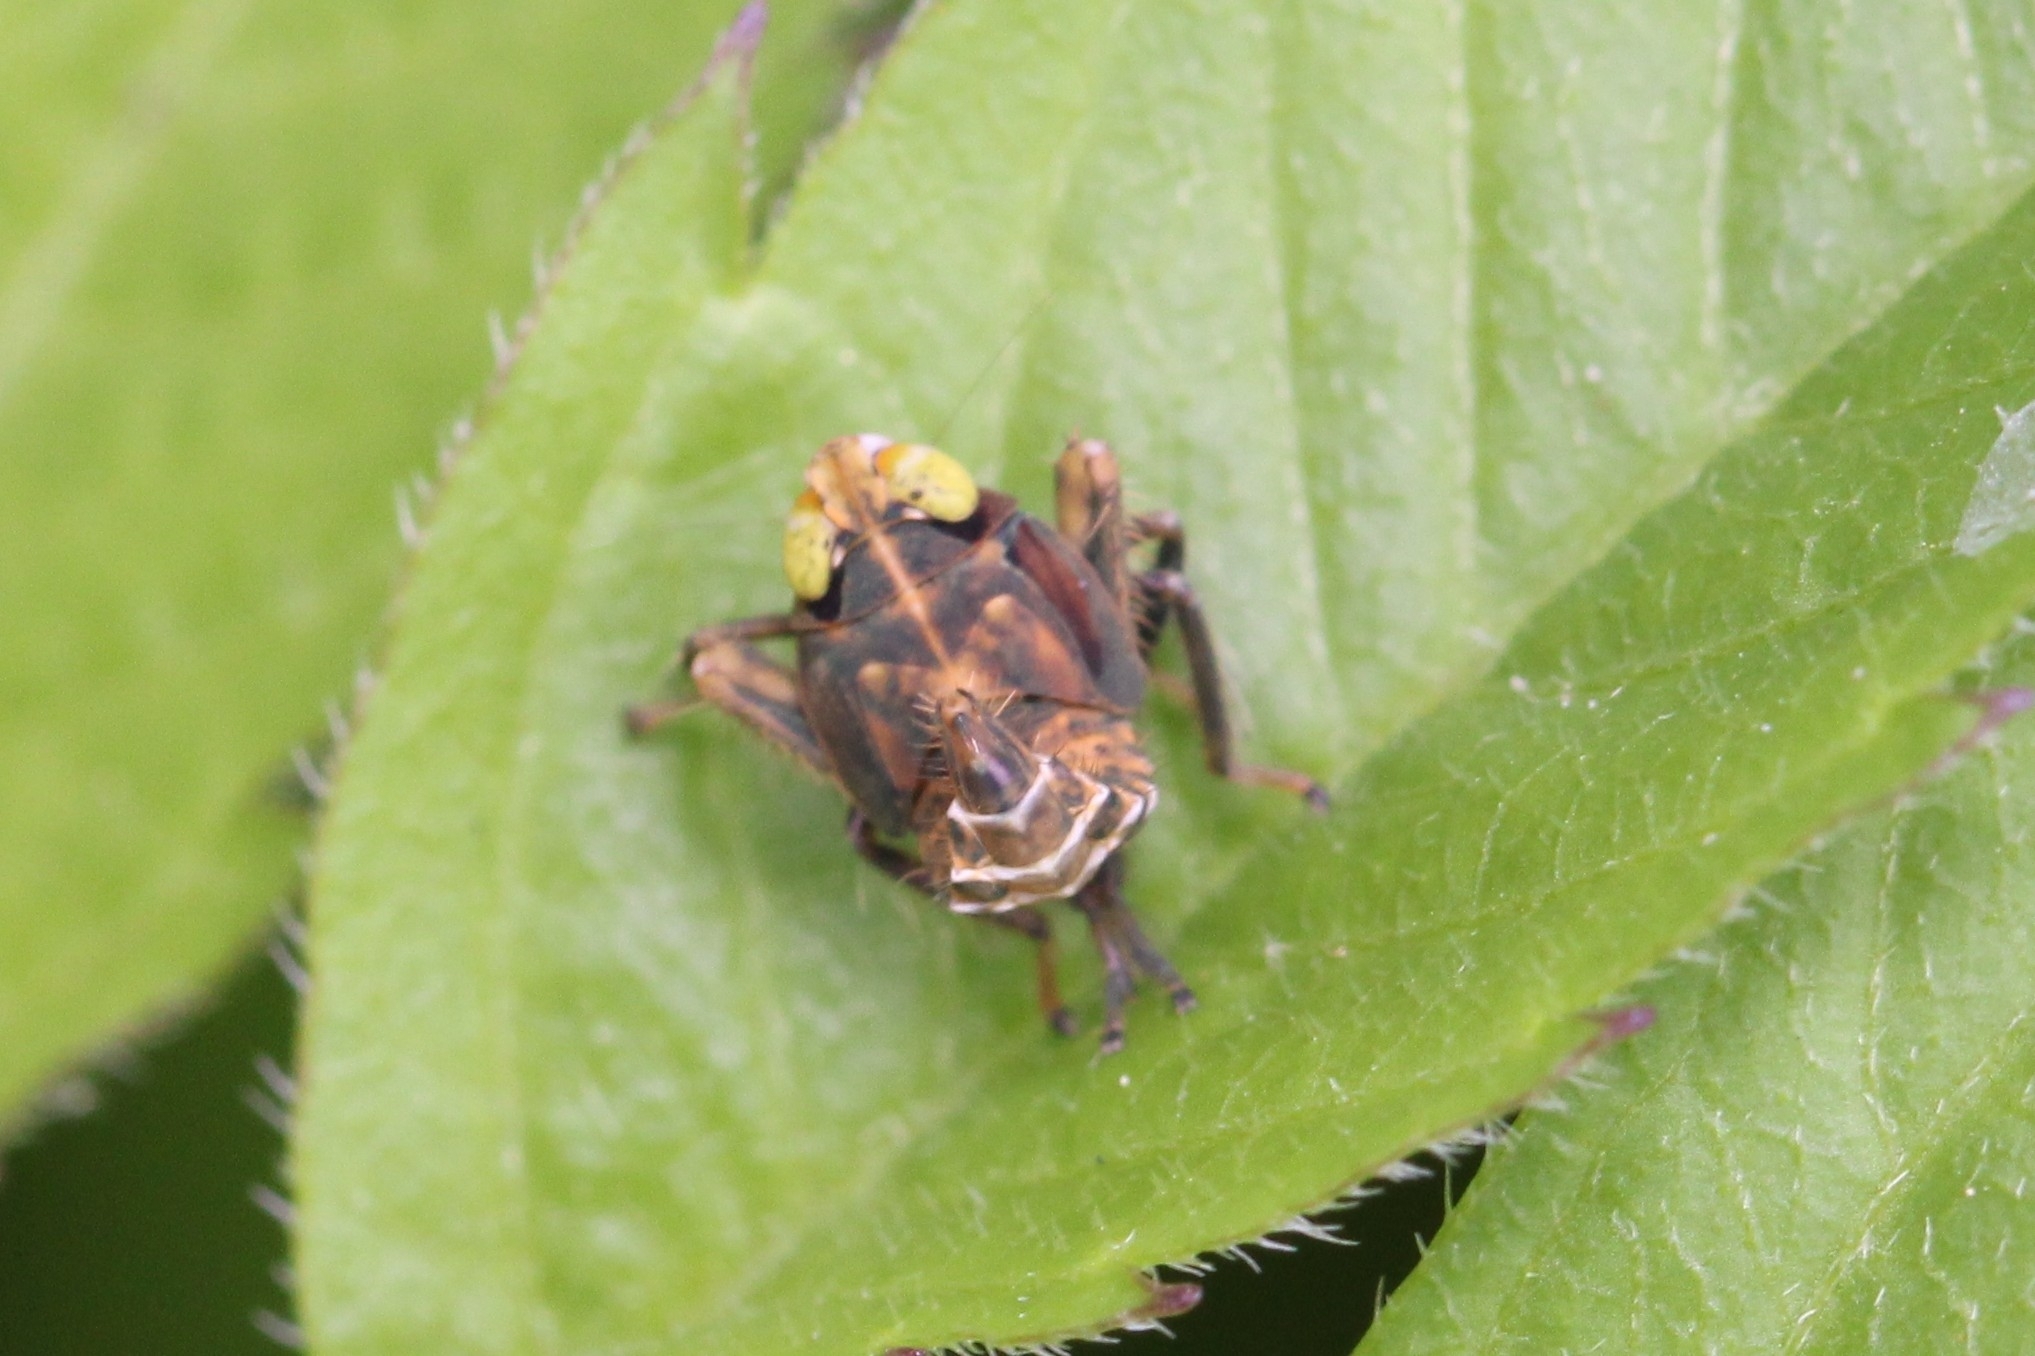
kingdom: Animalia
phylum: Arthropoda
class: Insecta
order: Hemiptera
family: Cicadellidae
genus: Jikradia
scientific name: Jikradia olitoria
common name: Coppery leafhopper
